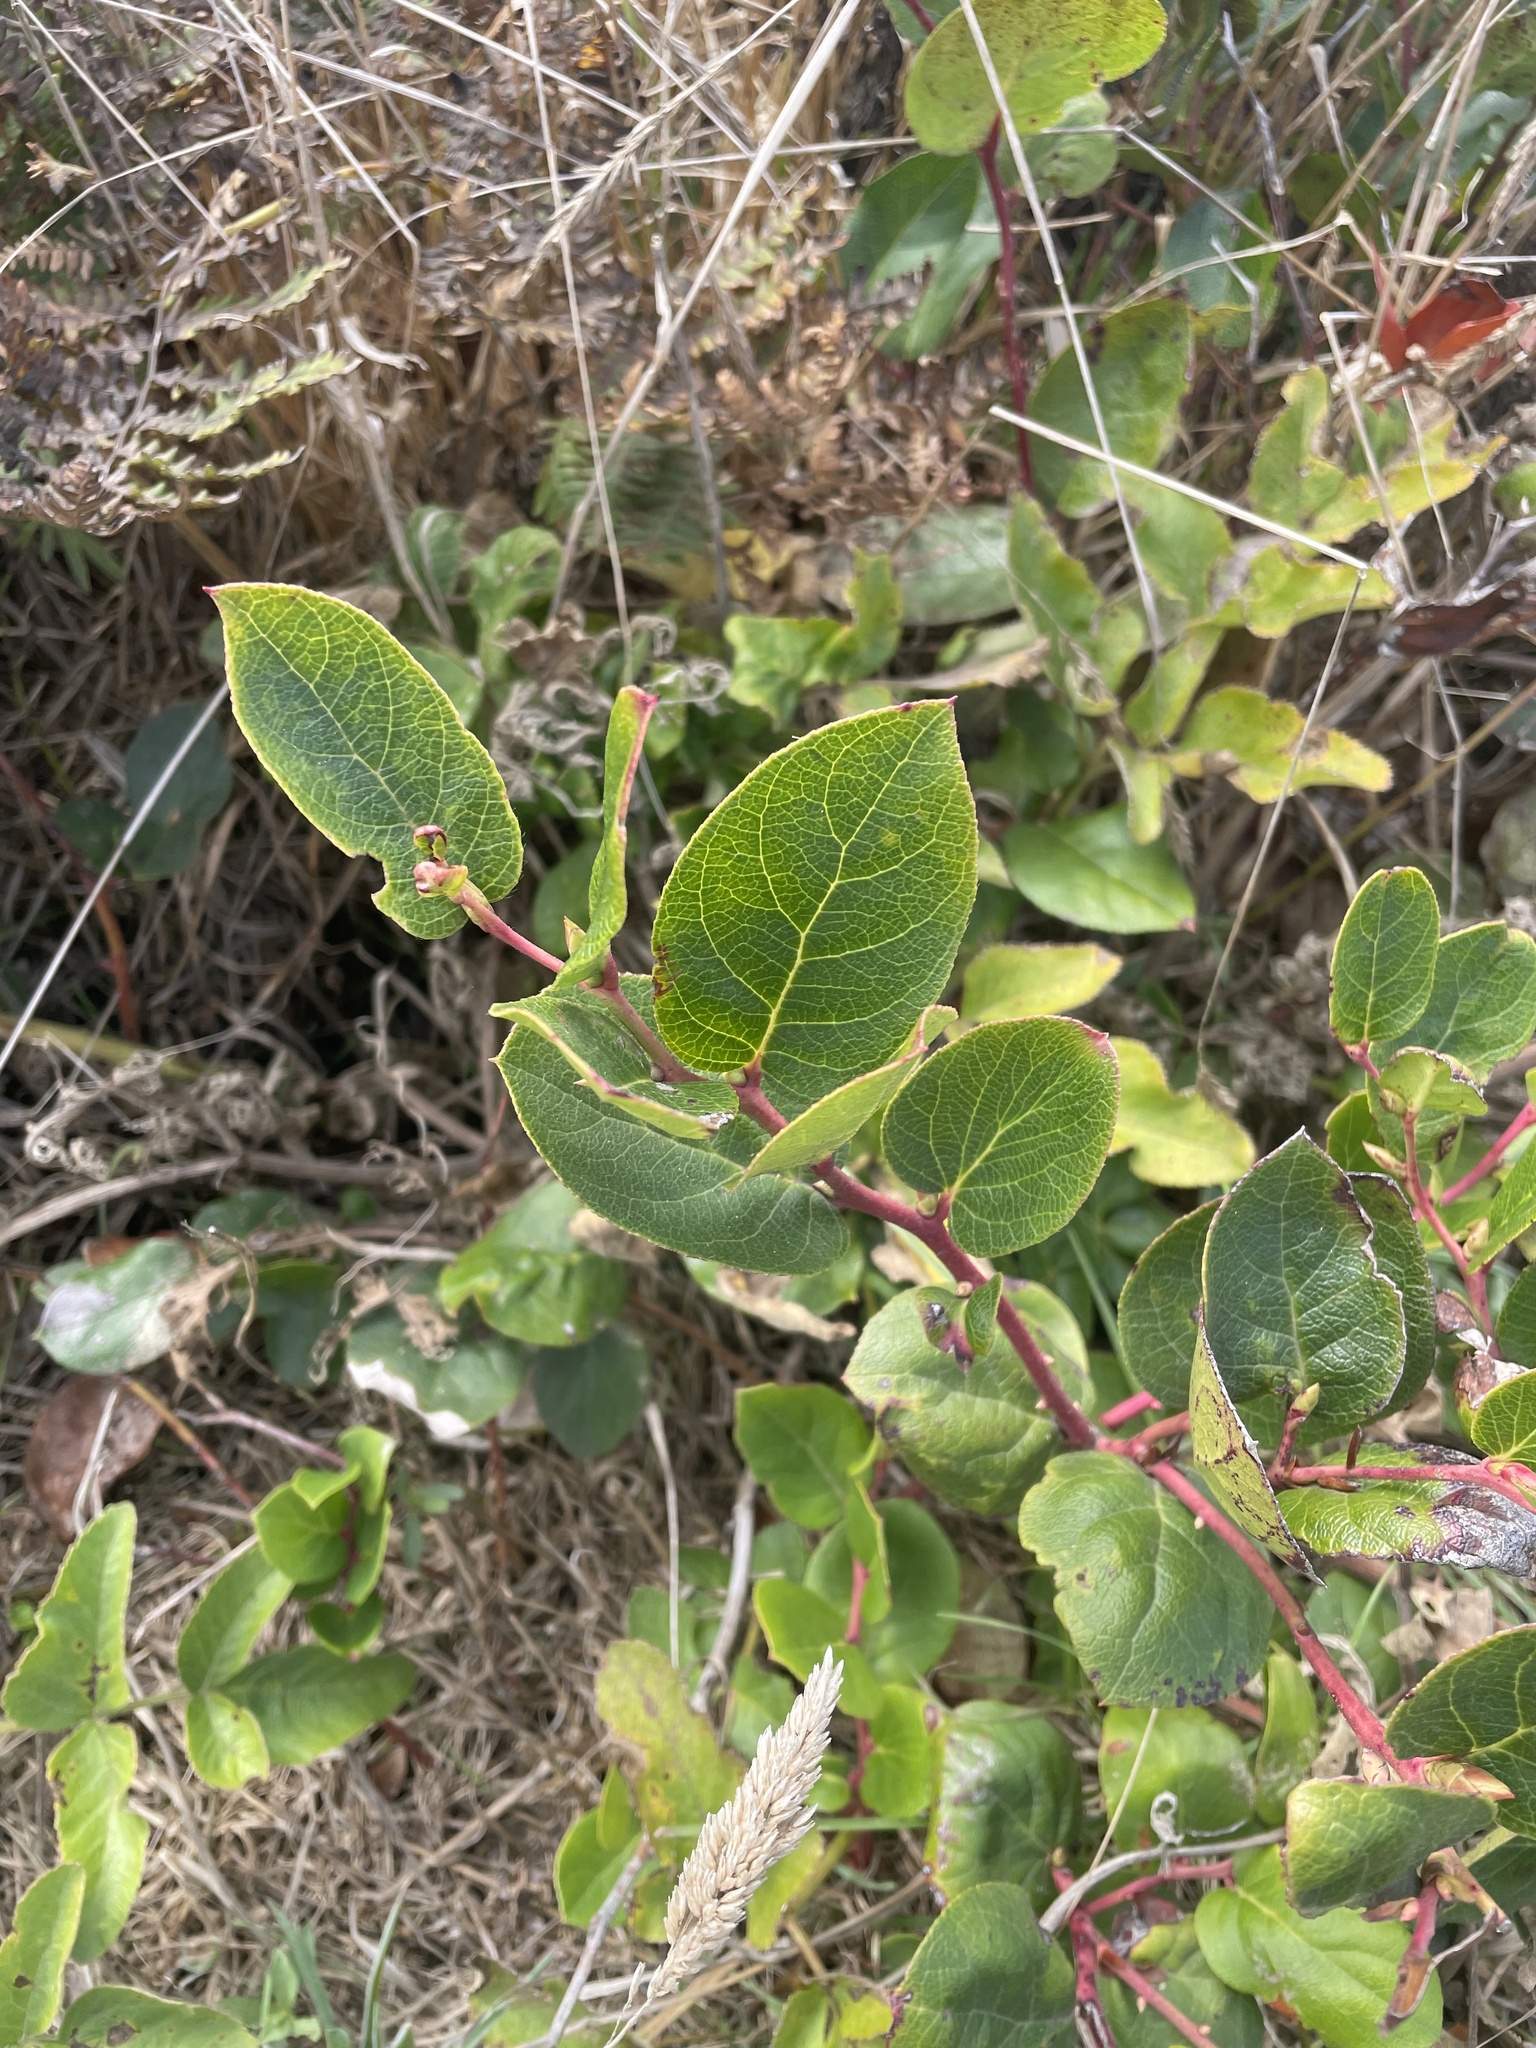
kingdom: Plantae
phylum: Tracheophyta
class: Magnoliopsida
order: Ericales
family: Ericaceae
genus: Gaultheria
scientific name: Gaultheria shallon
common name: Shallon
